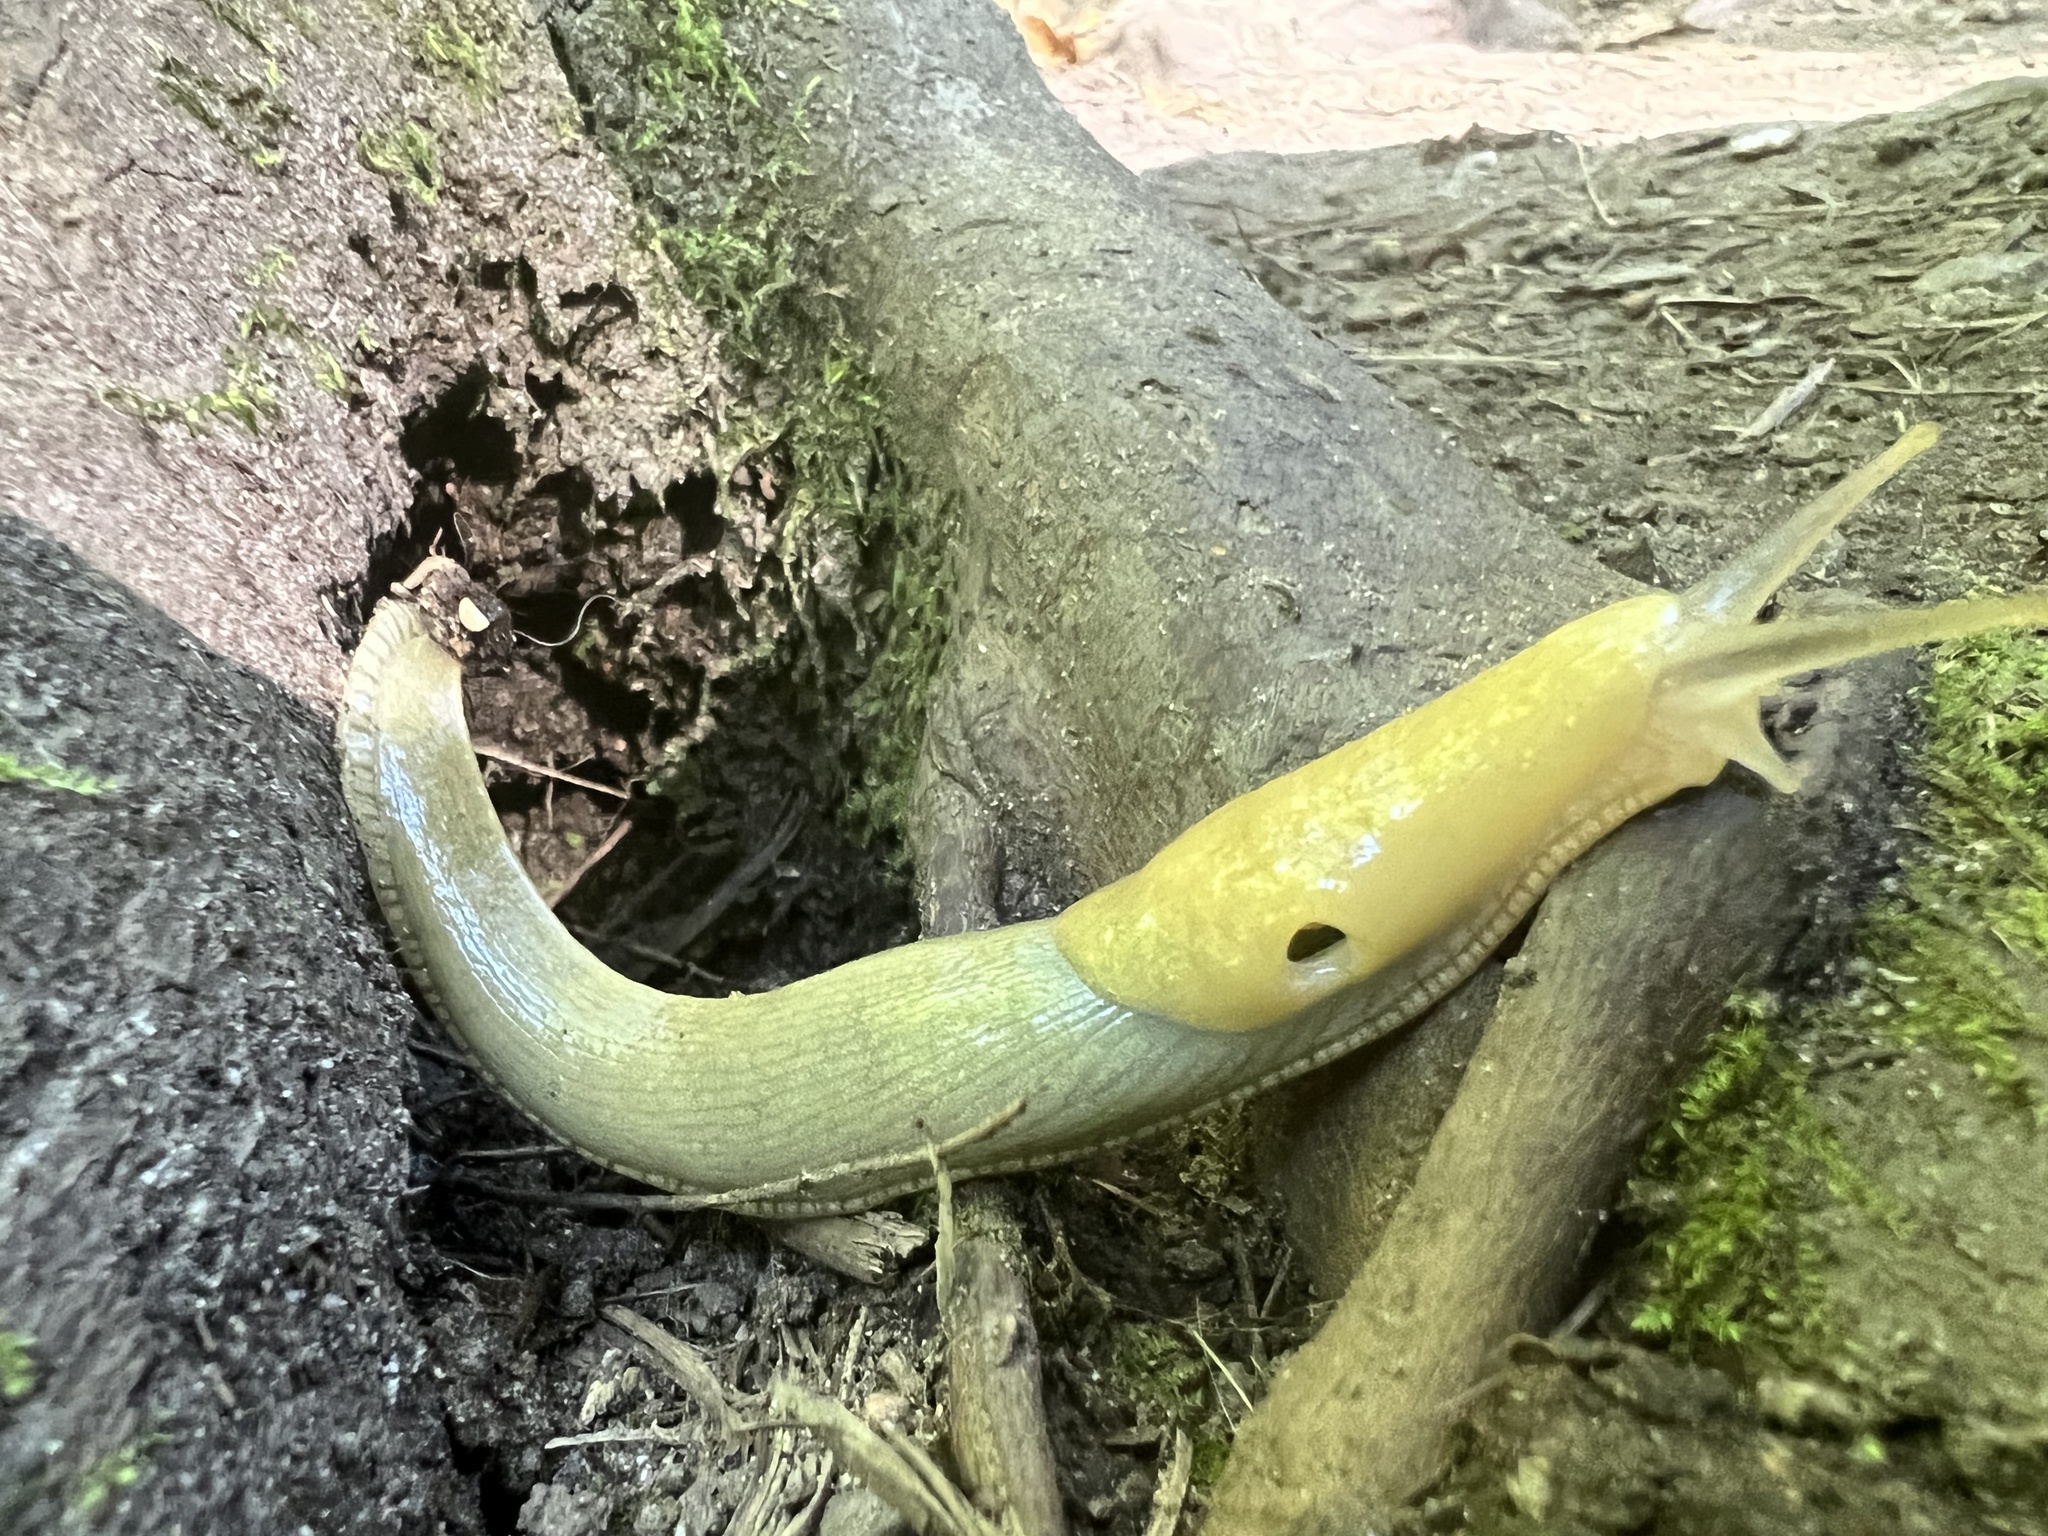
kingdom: Animalia
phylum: Mollusca
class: Gastropoda
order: Stylommatophora
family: Ariolimacidae
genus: Ariolimax
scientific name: Ariolimax columbianus
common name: Pacific banana slug
